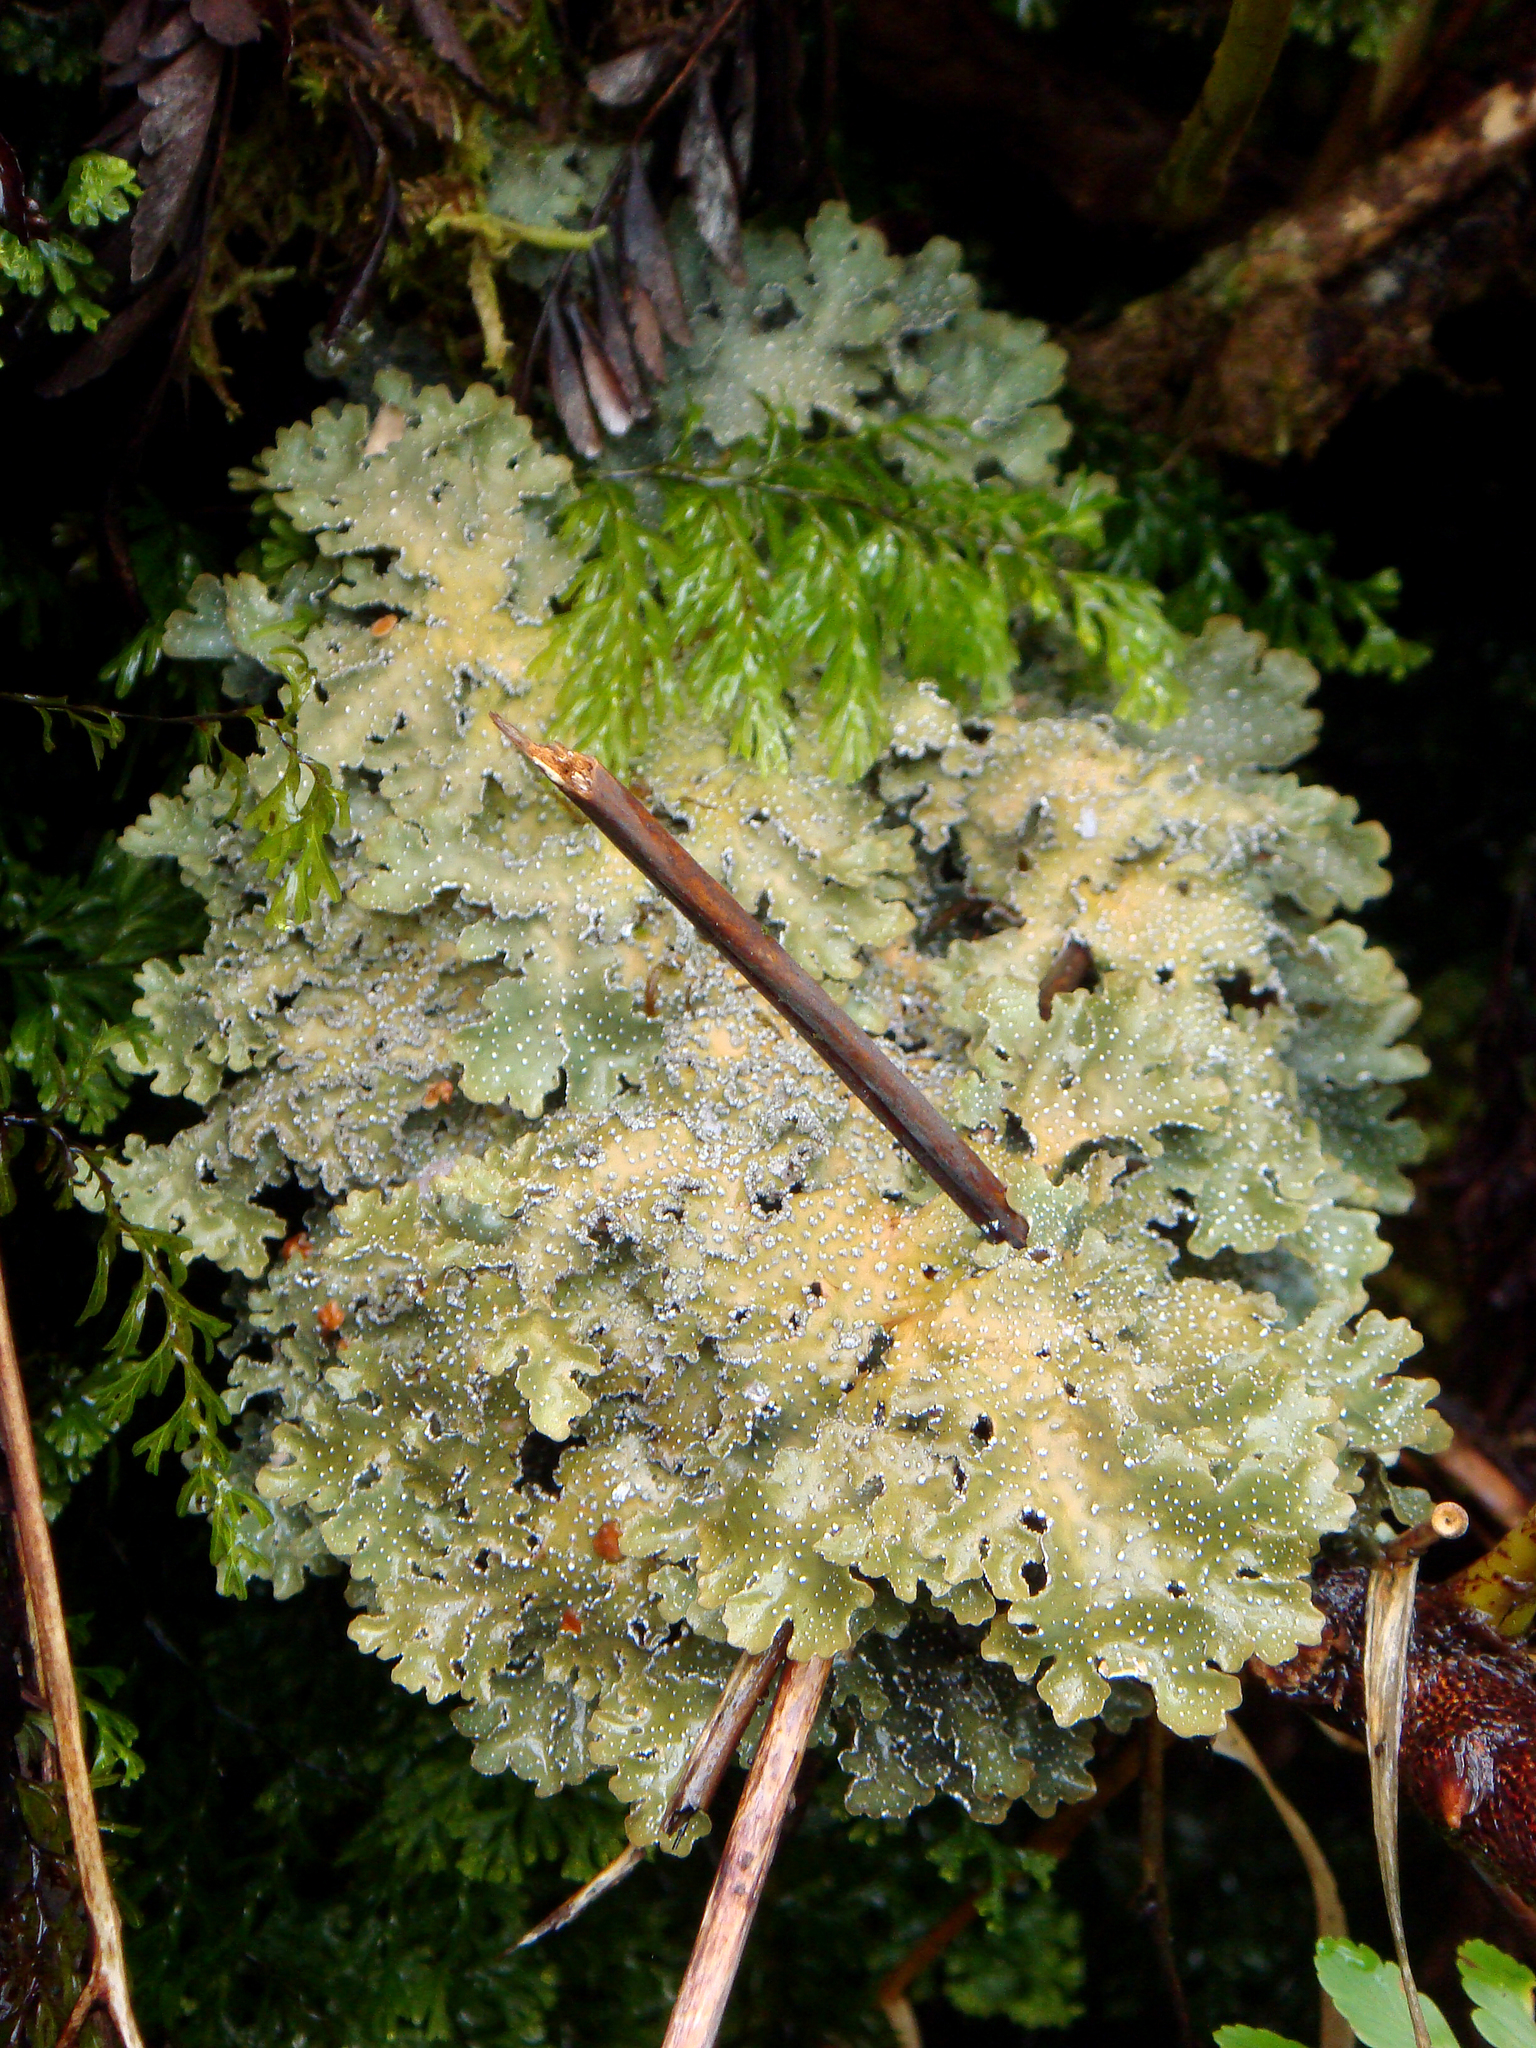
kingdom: Fungi
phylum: Ascomycota
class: Lecanoromycetes
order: Peltigerales
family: Lobariaceae
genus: Pseudocyphellaria
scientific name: Pseudocyphellaria argyracea
